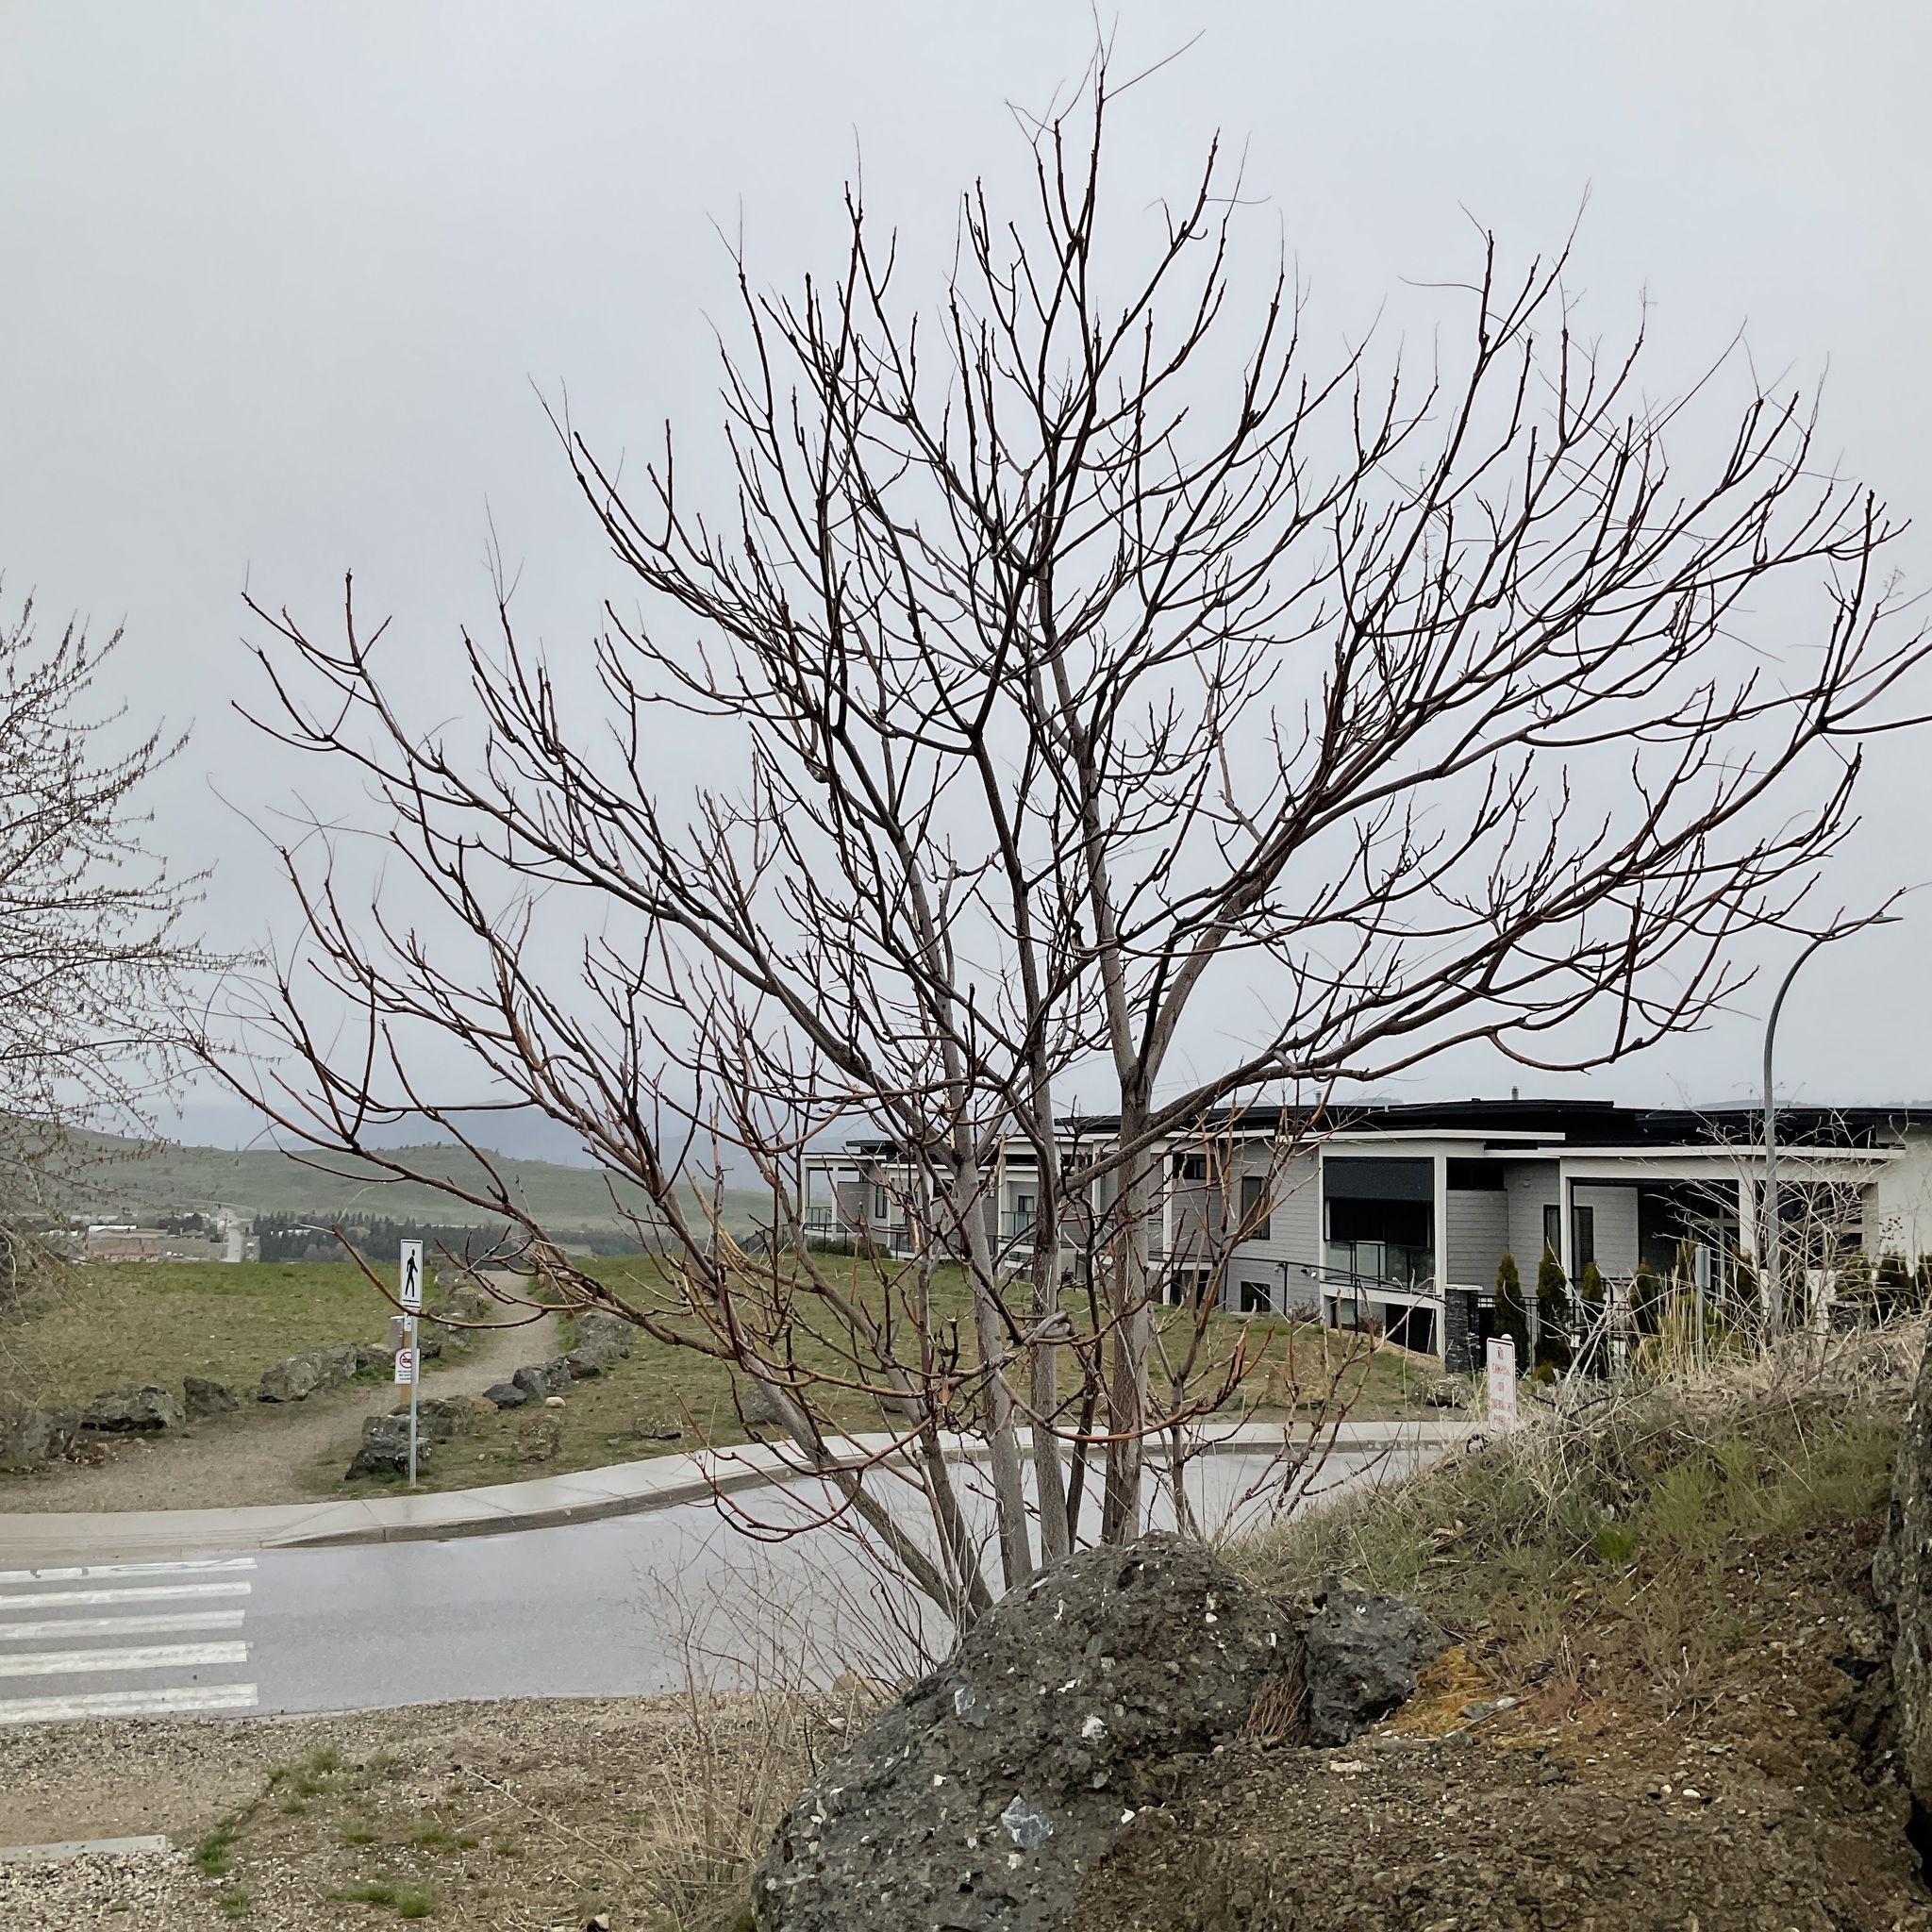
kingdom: Plantae
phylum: Tracheophyta
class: Magnoliopsida
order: Sapindales
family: Simaroubaceae
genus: Ailanthus
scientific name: Ailanthus altissima
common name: Tree-of-heaven
